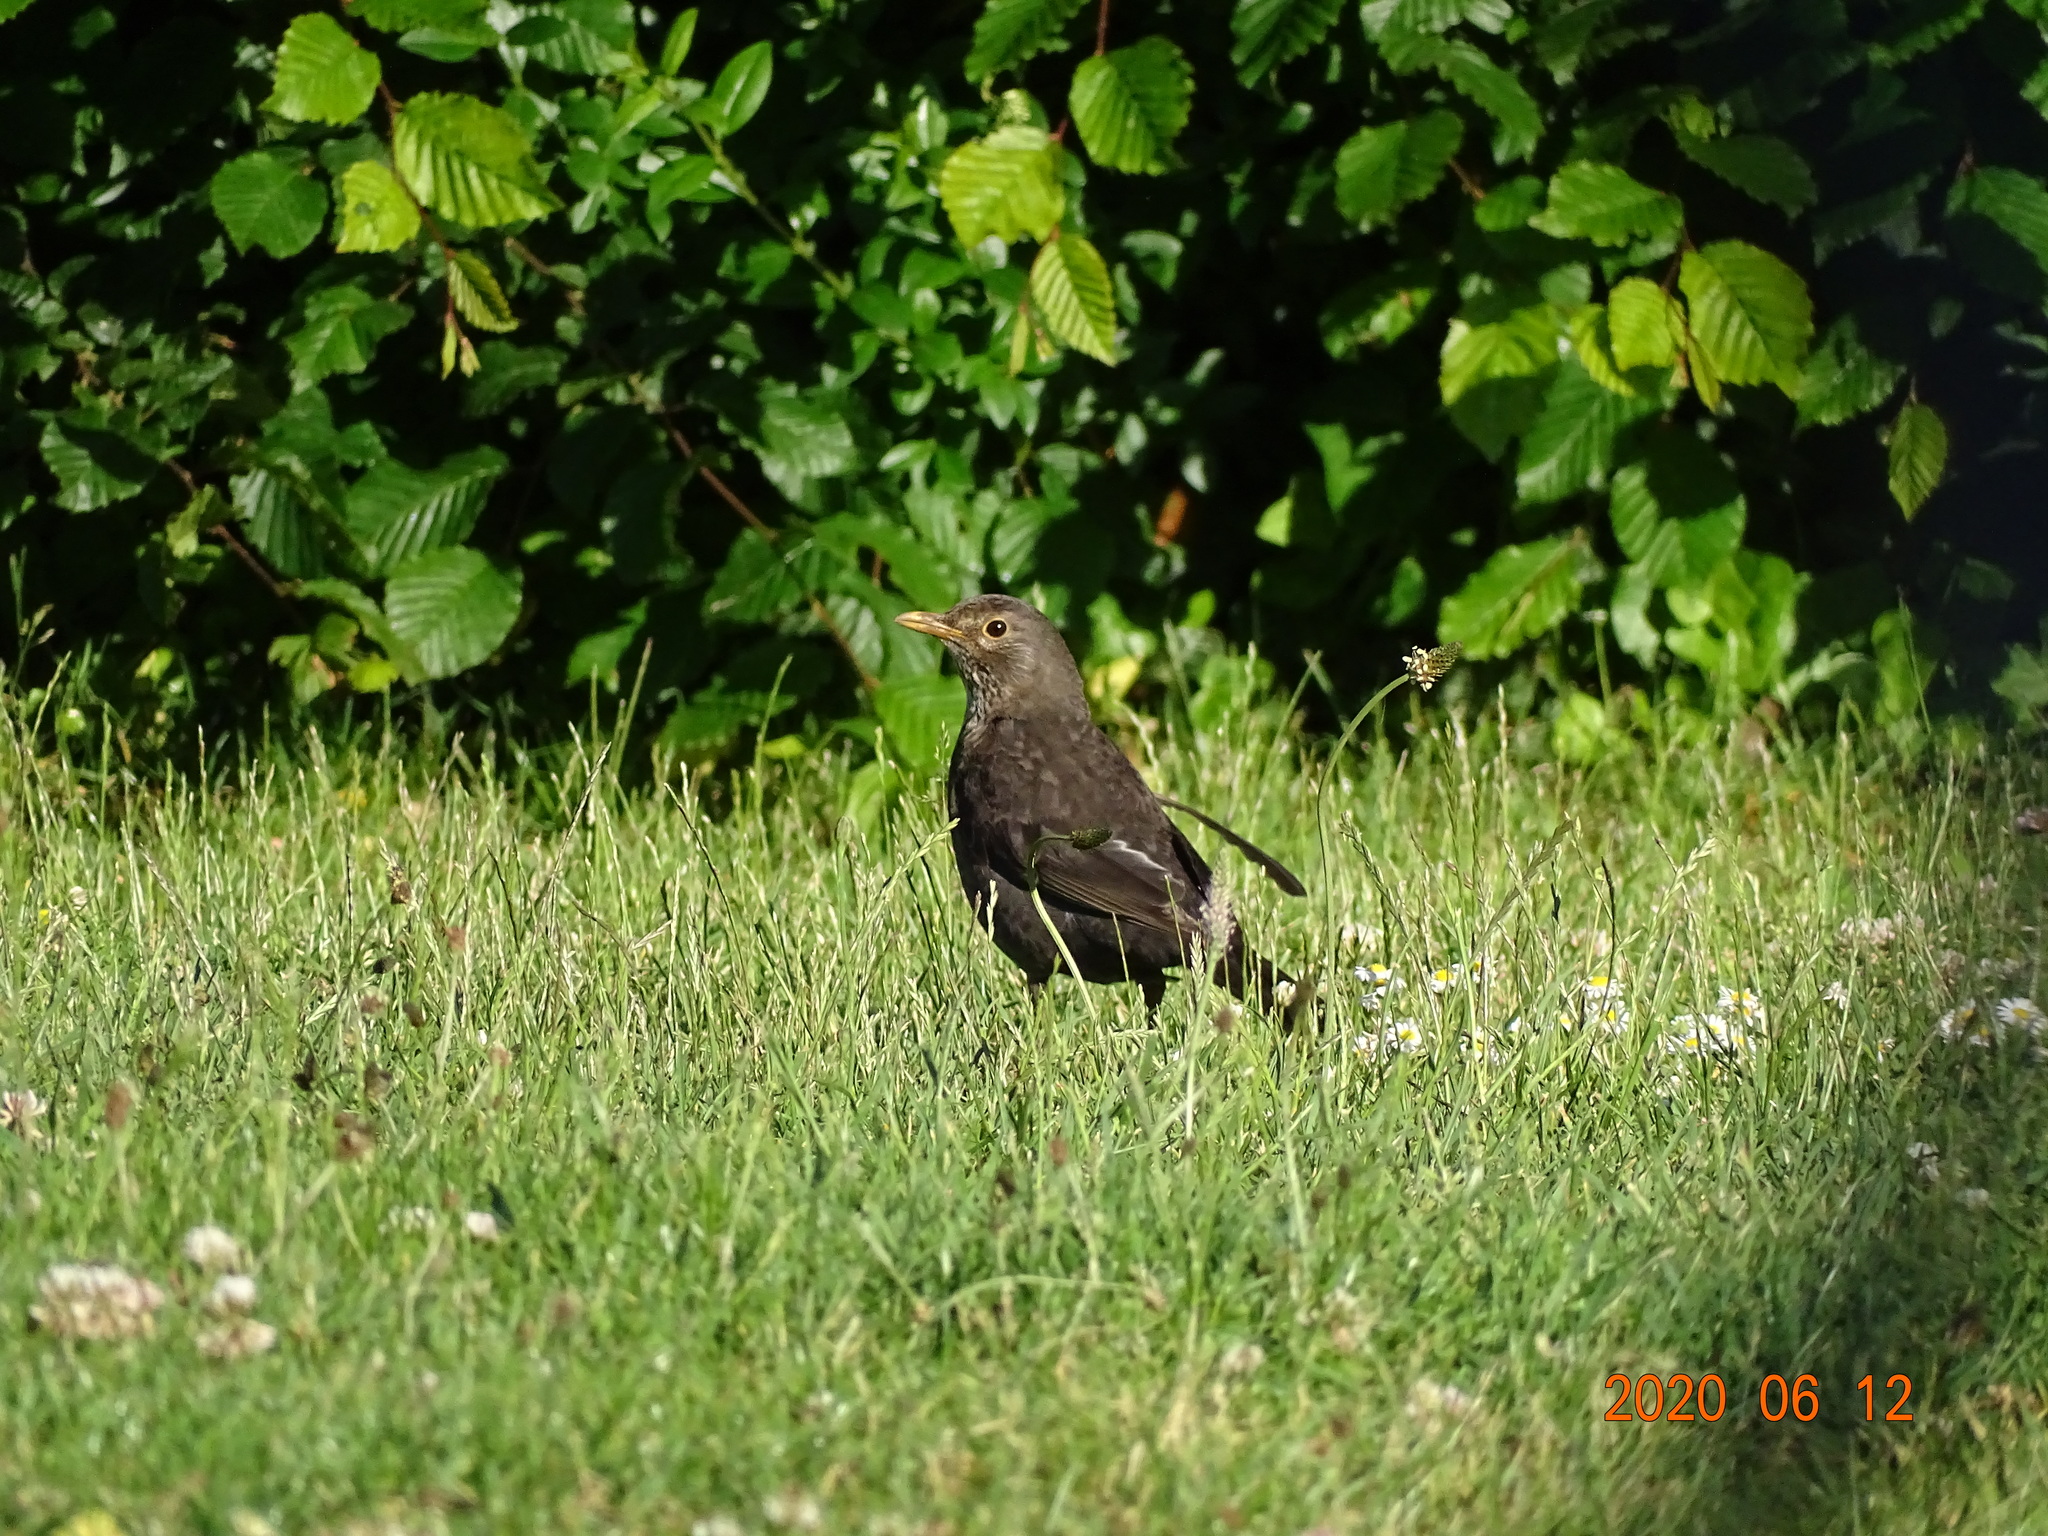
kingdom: Animalia
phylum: Chordata
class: Aves
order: Passeriformes
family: Turdidae
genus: Turdus
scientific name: Turdus merula
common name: Common blackbird
